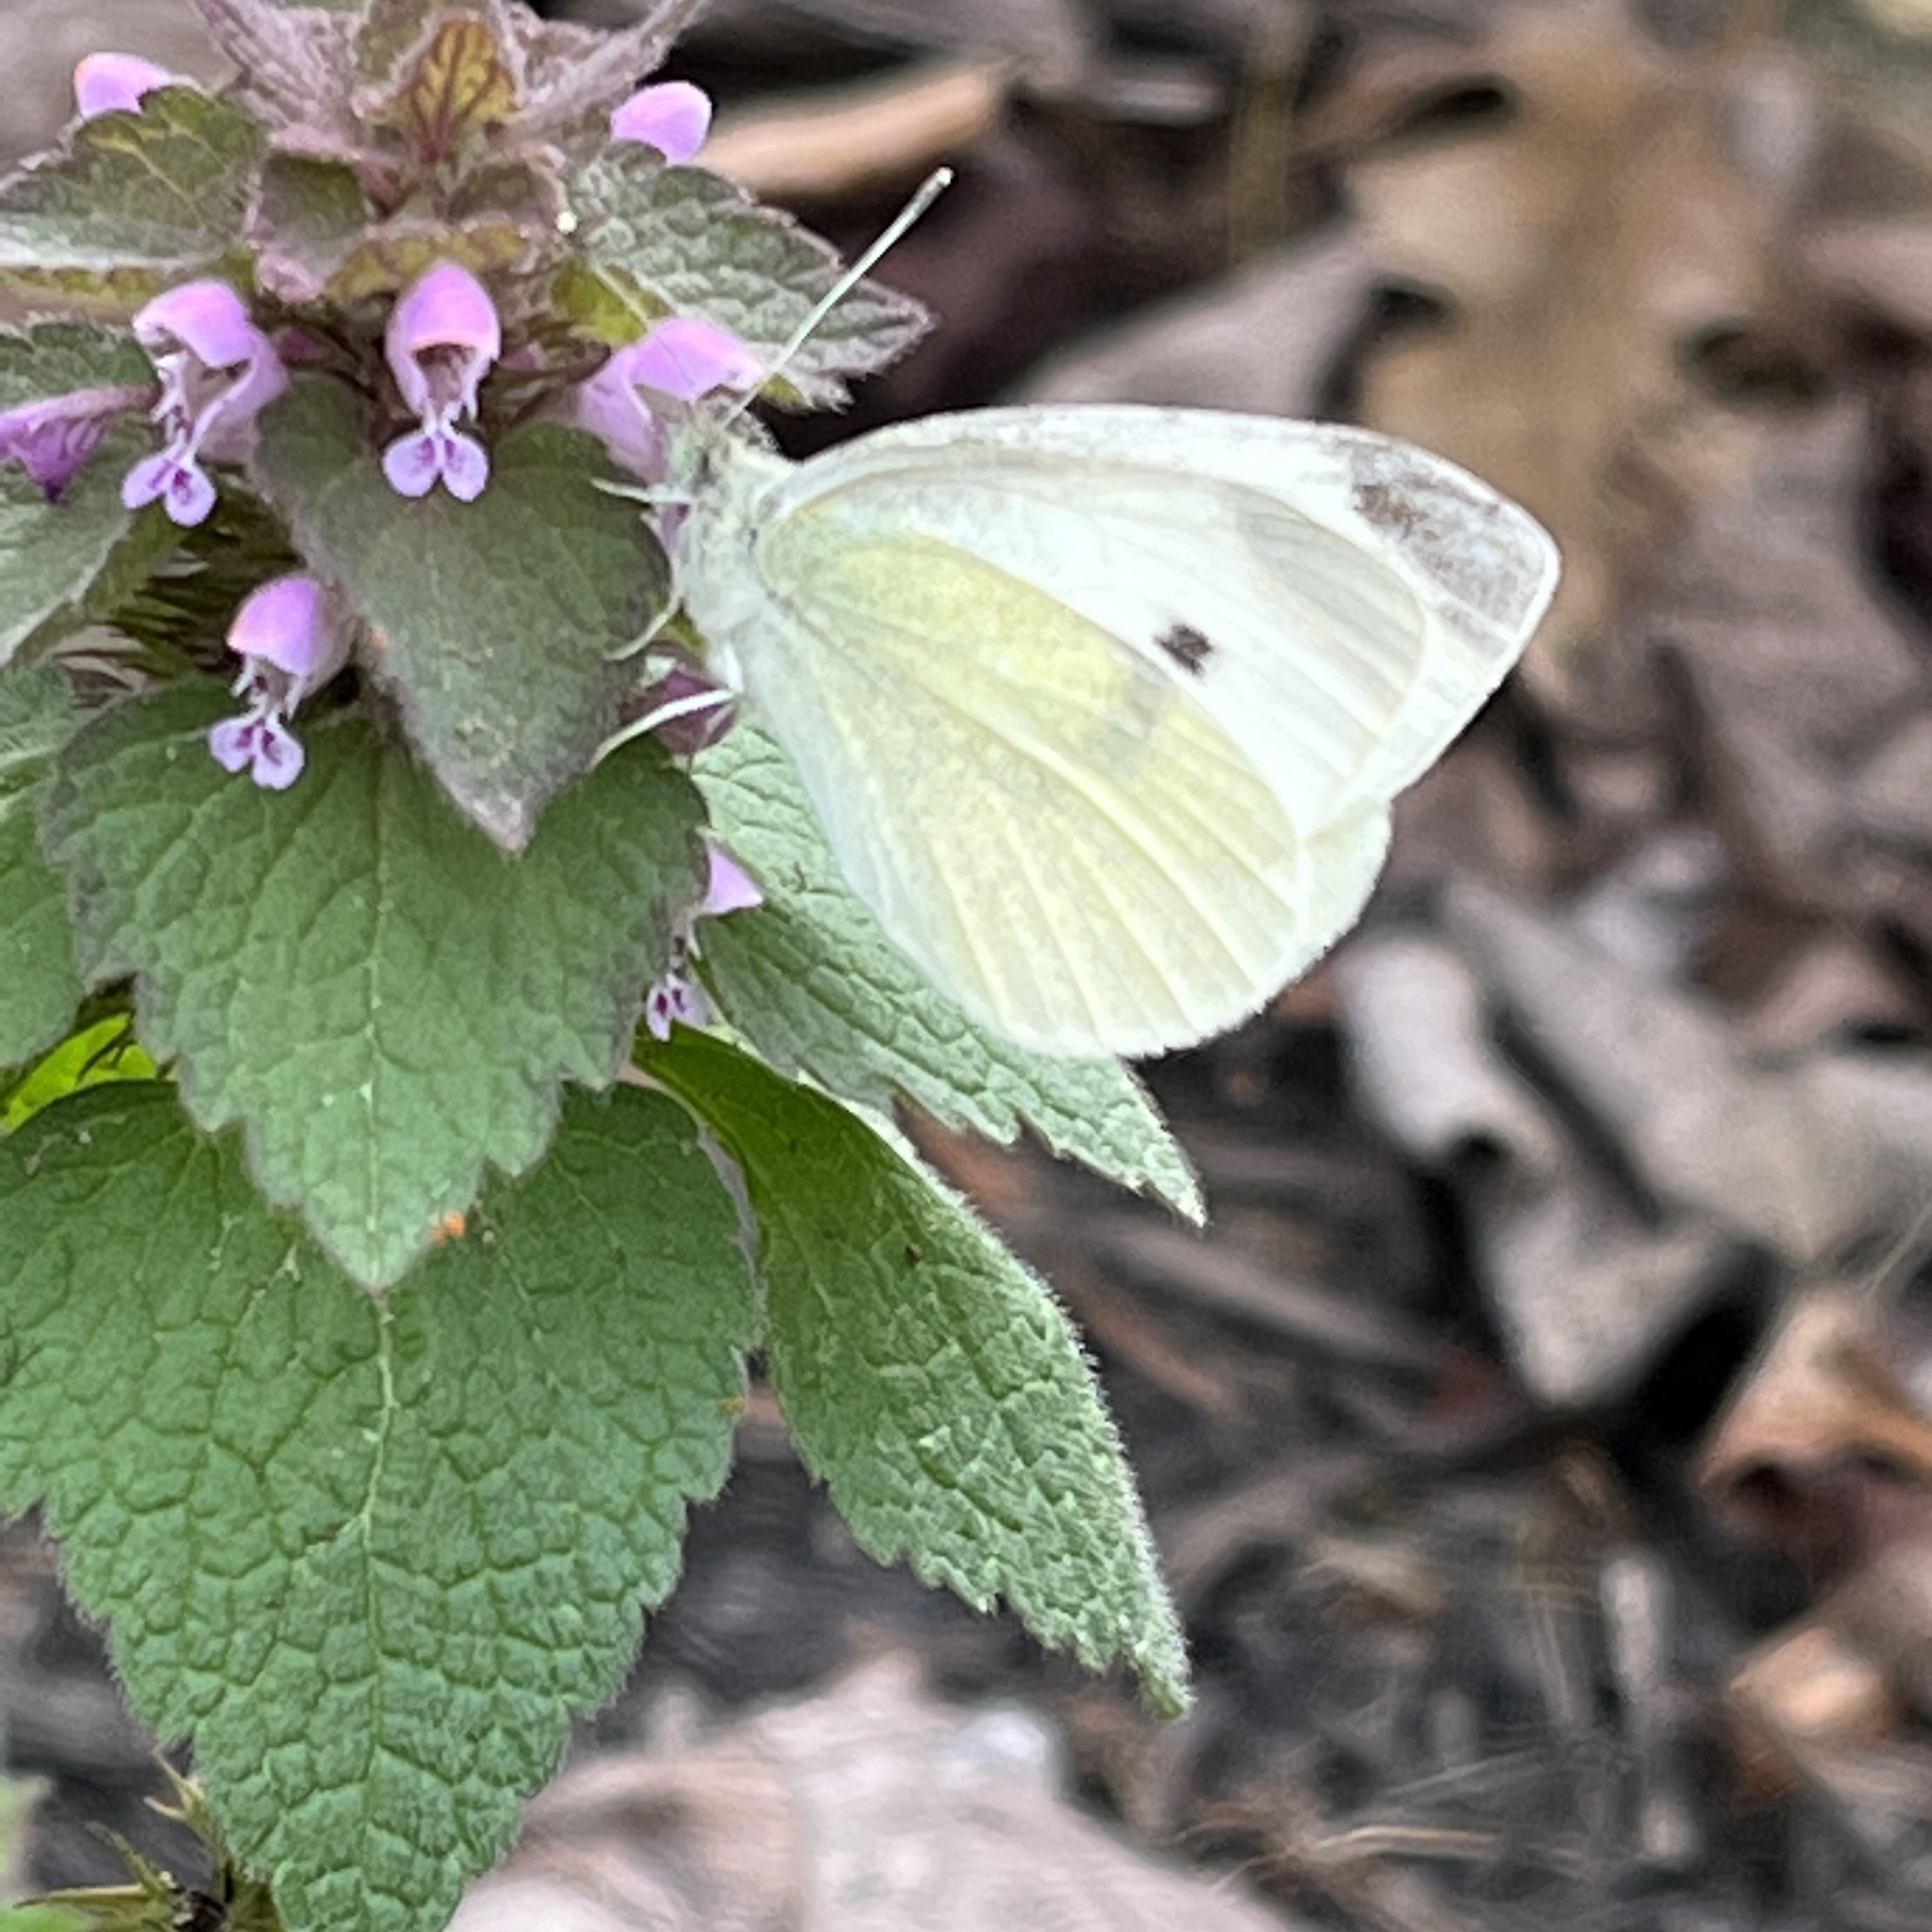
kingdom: Animalia
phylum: Arthropoda
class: Insecta
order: Lepidoptera
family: Pieridae
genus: Pieris
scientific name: Pieris rapae
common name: Small white
